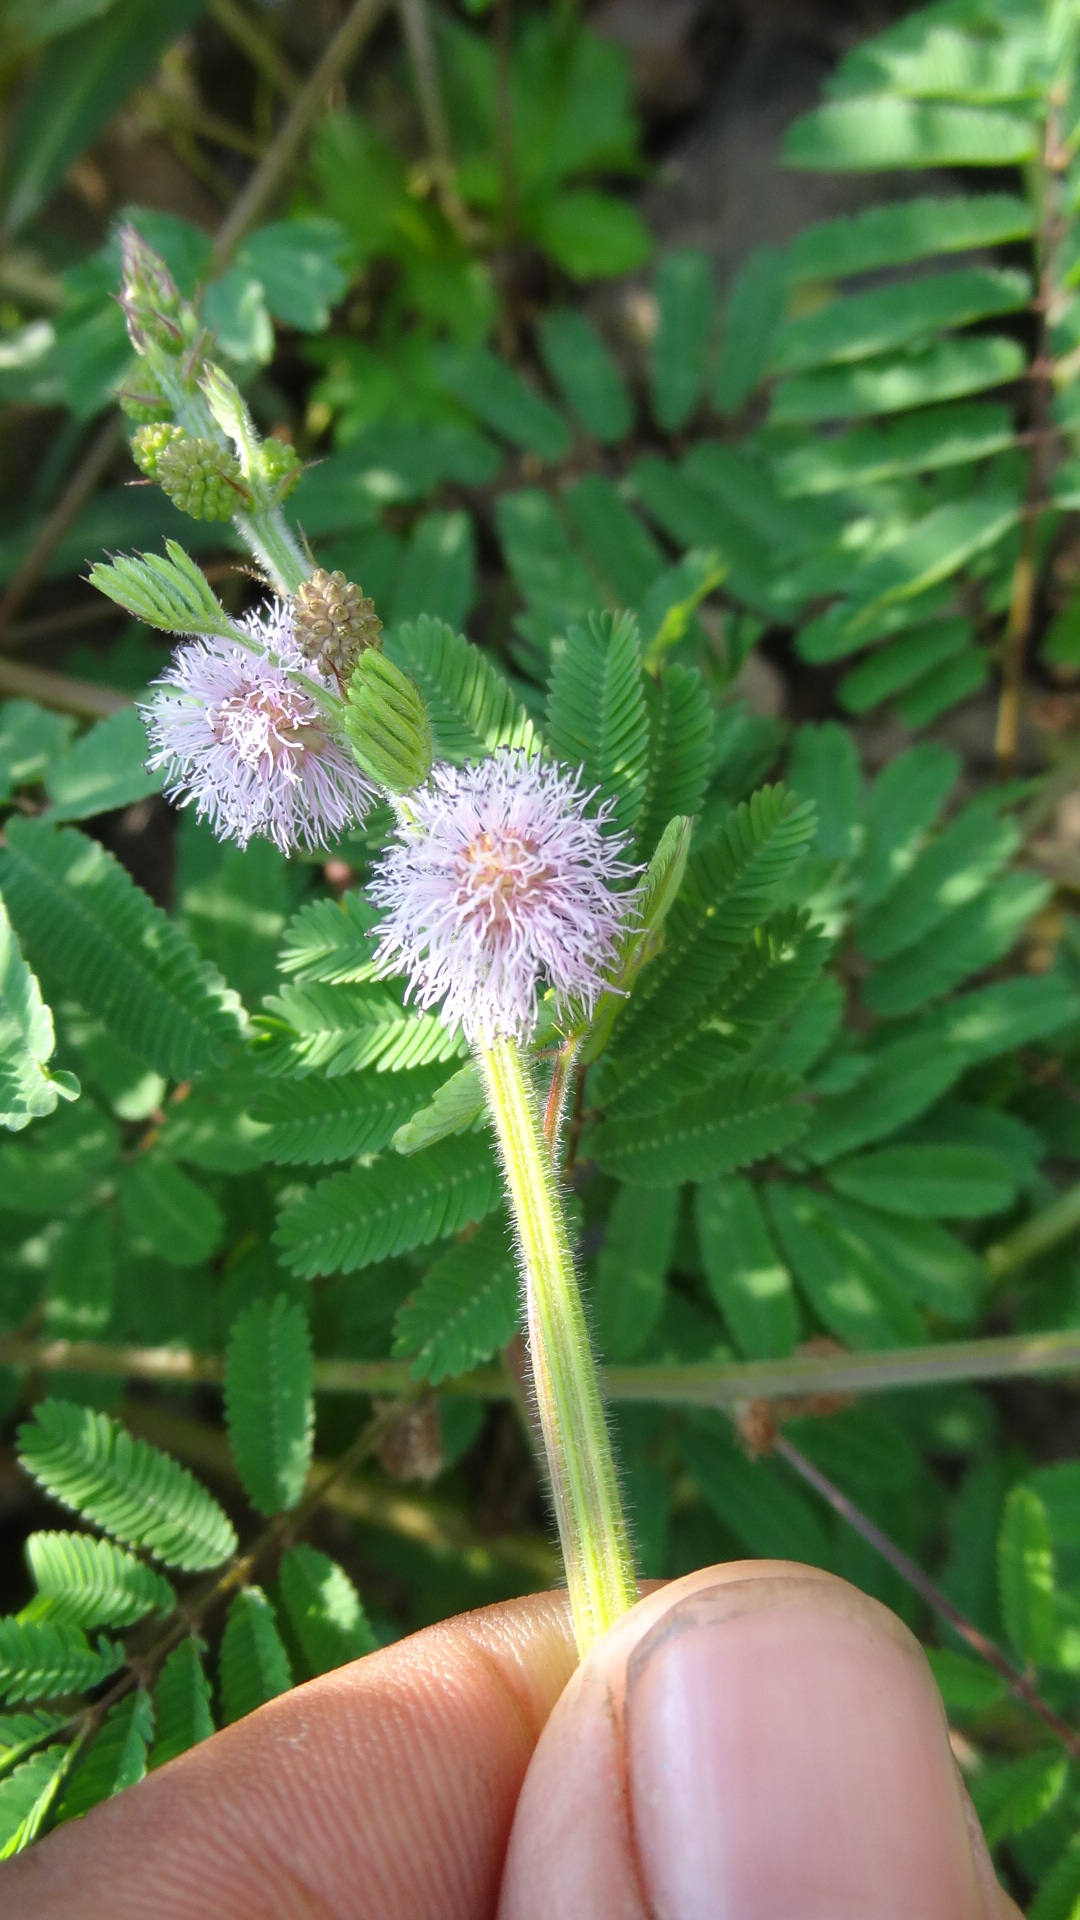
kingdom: Plantae
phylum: Tracheophyta
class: Magnoliopsida
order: Fabales
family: Fabaceae
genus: Mimosa
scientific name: Mimosa diplotricha
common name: Giant sensitive-plant
